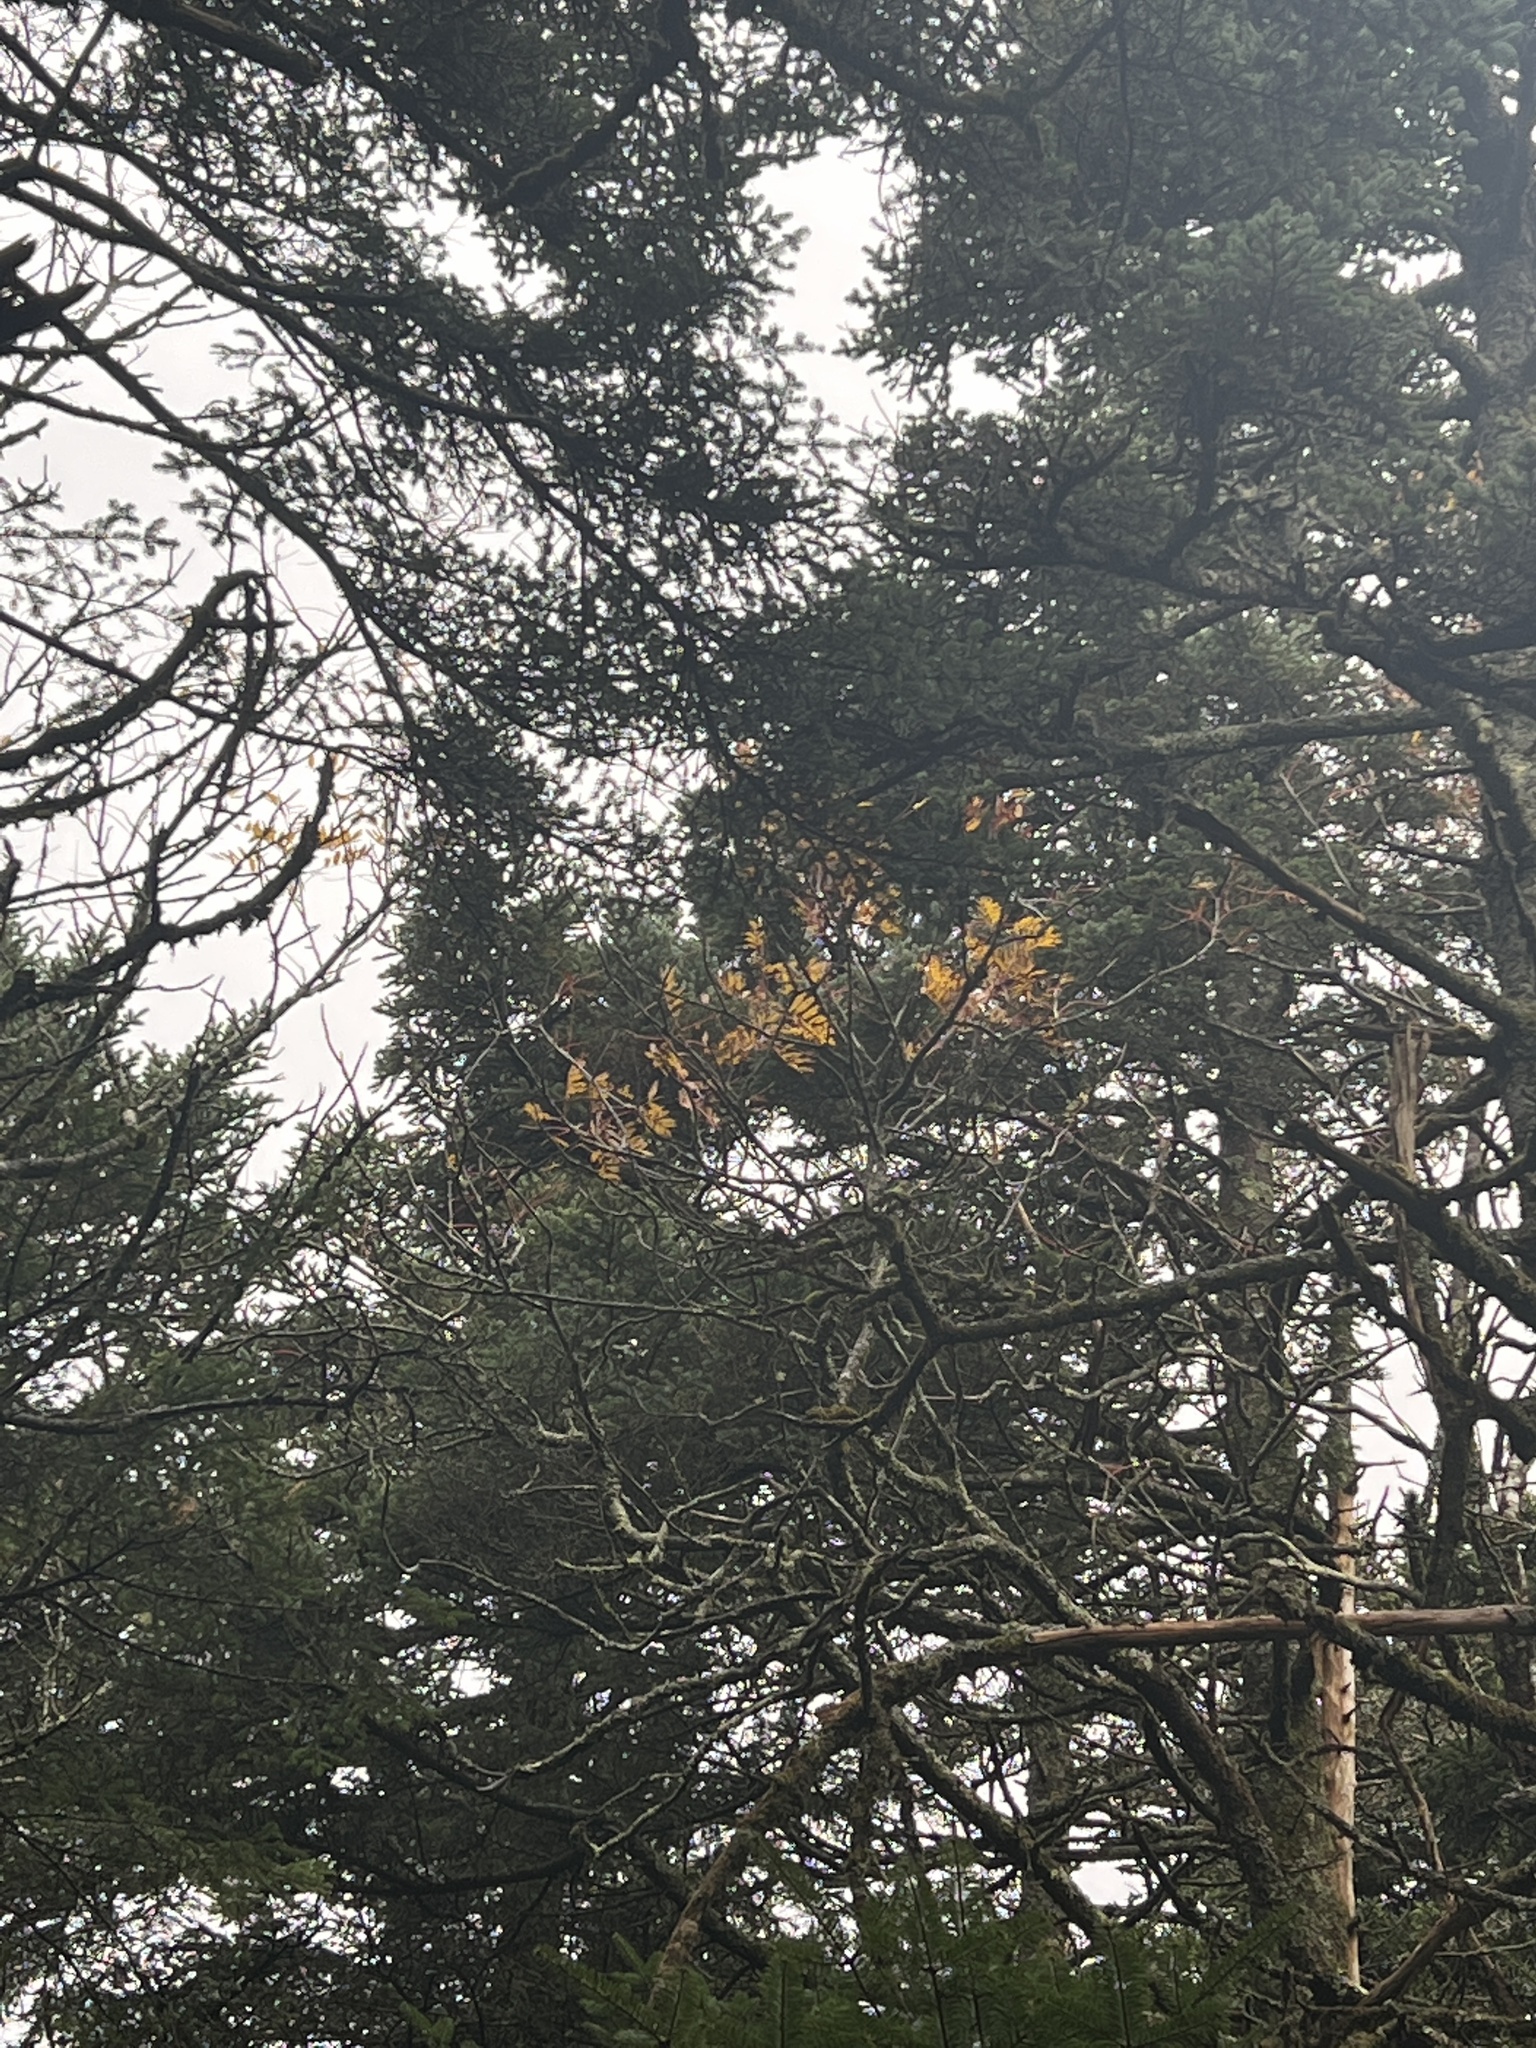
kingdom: Plantae
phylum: Tracheophyta
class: Magnoliopsida
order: Rosales
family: Rosaceae
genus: Sorbus
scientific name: Sorbus americana
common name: American mountain-ash
